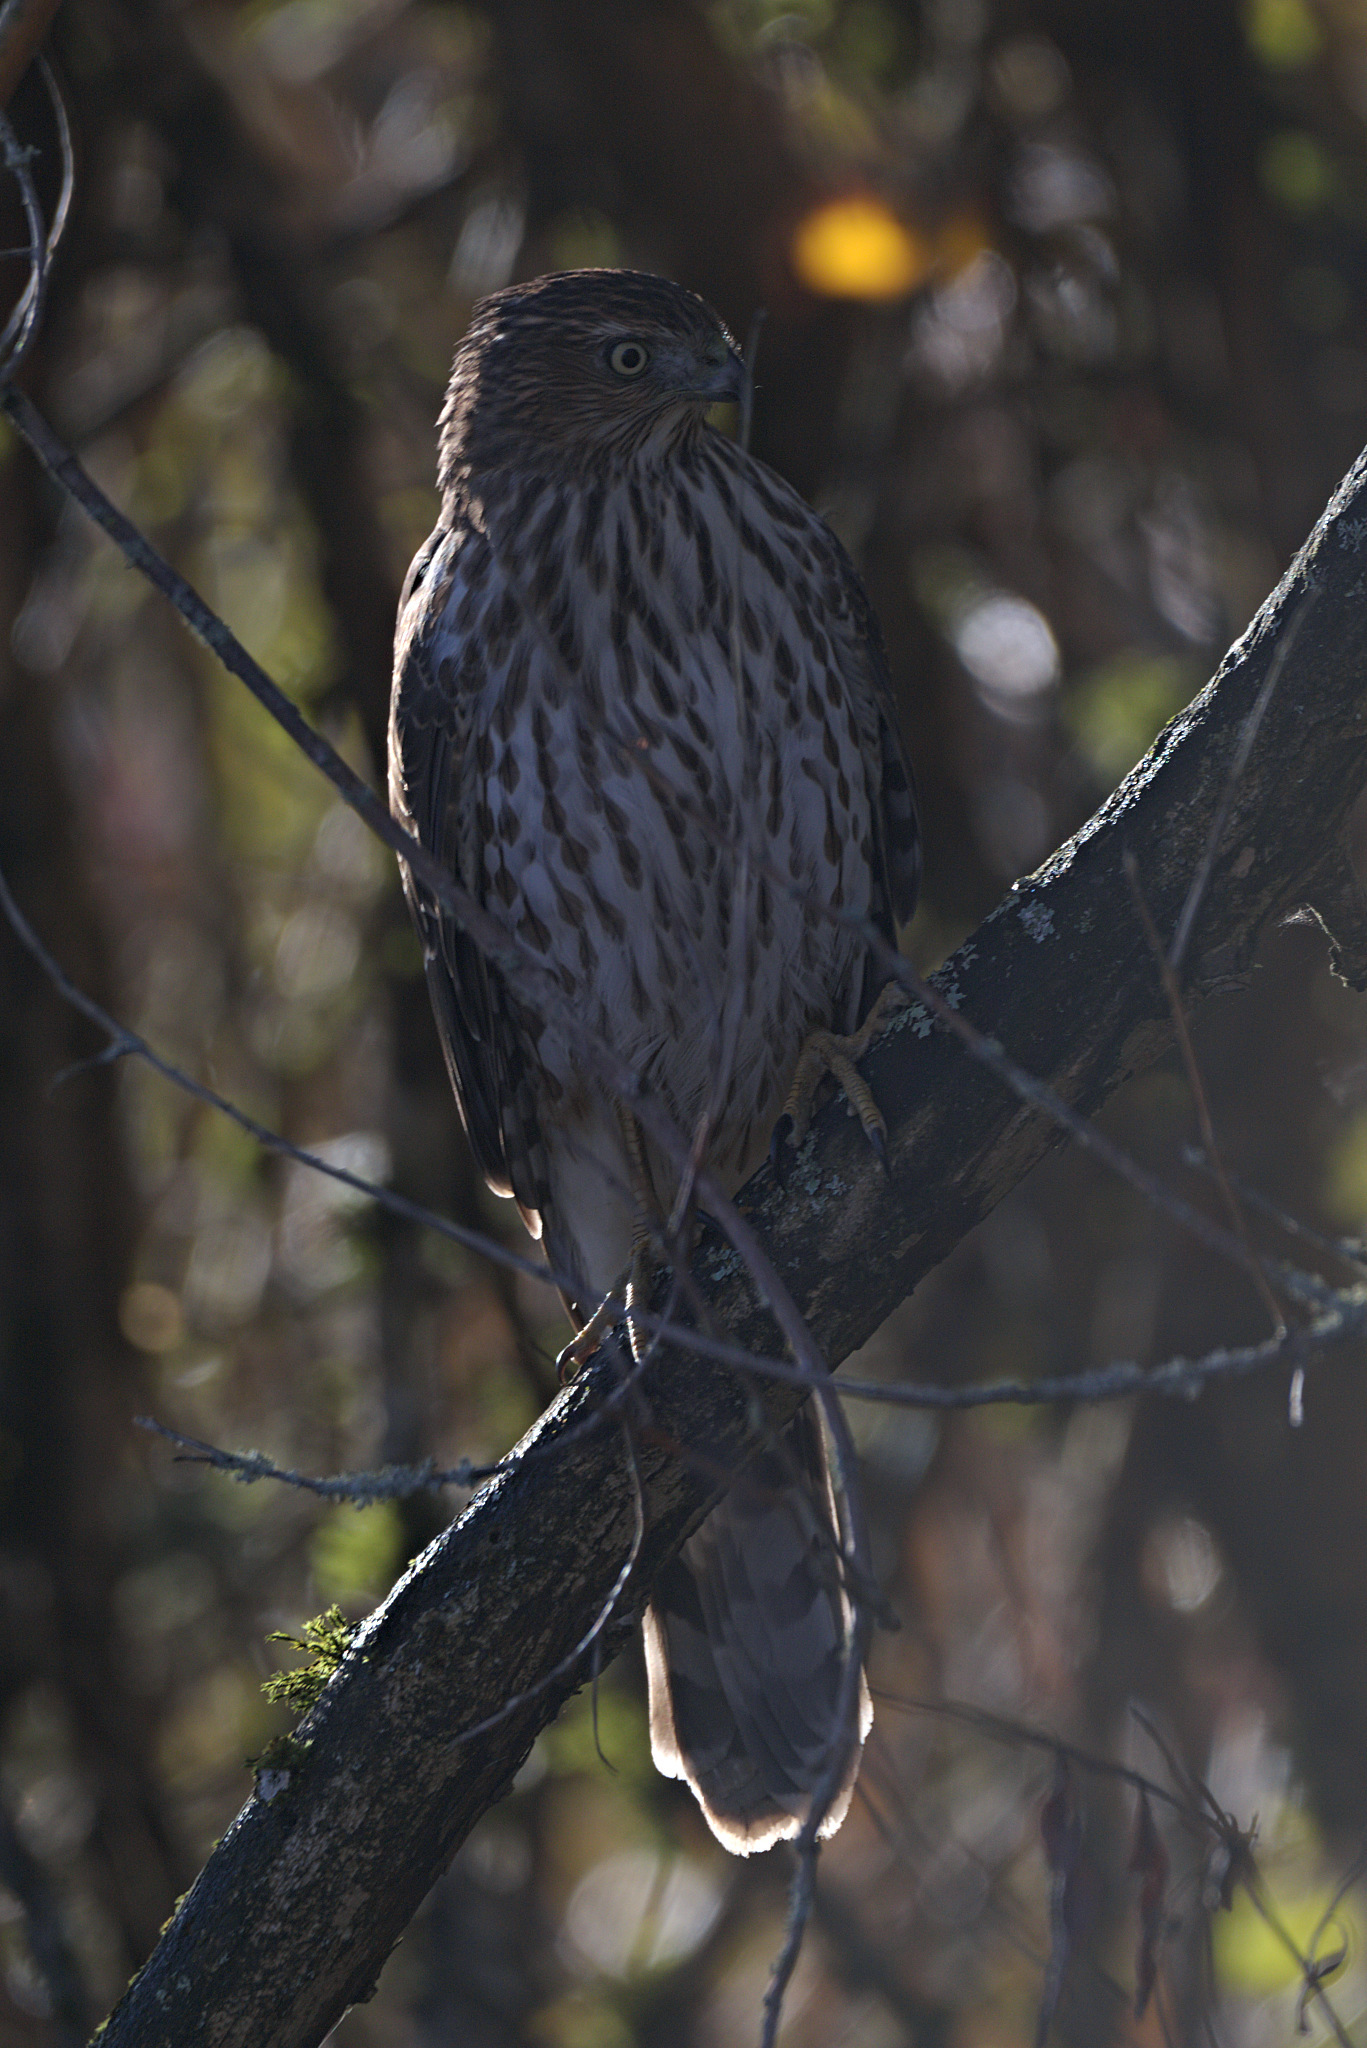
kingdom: Animalia
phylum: Chordata
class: Aves
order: Accipitriformes
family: Accipitridae
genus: Accipiter
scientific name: Accipiter cooperii
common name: Cooper's hawk
